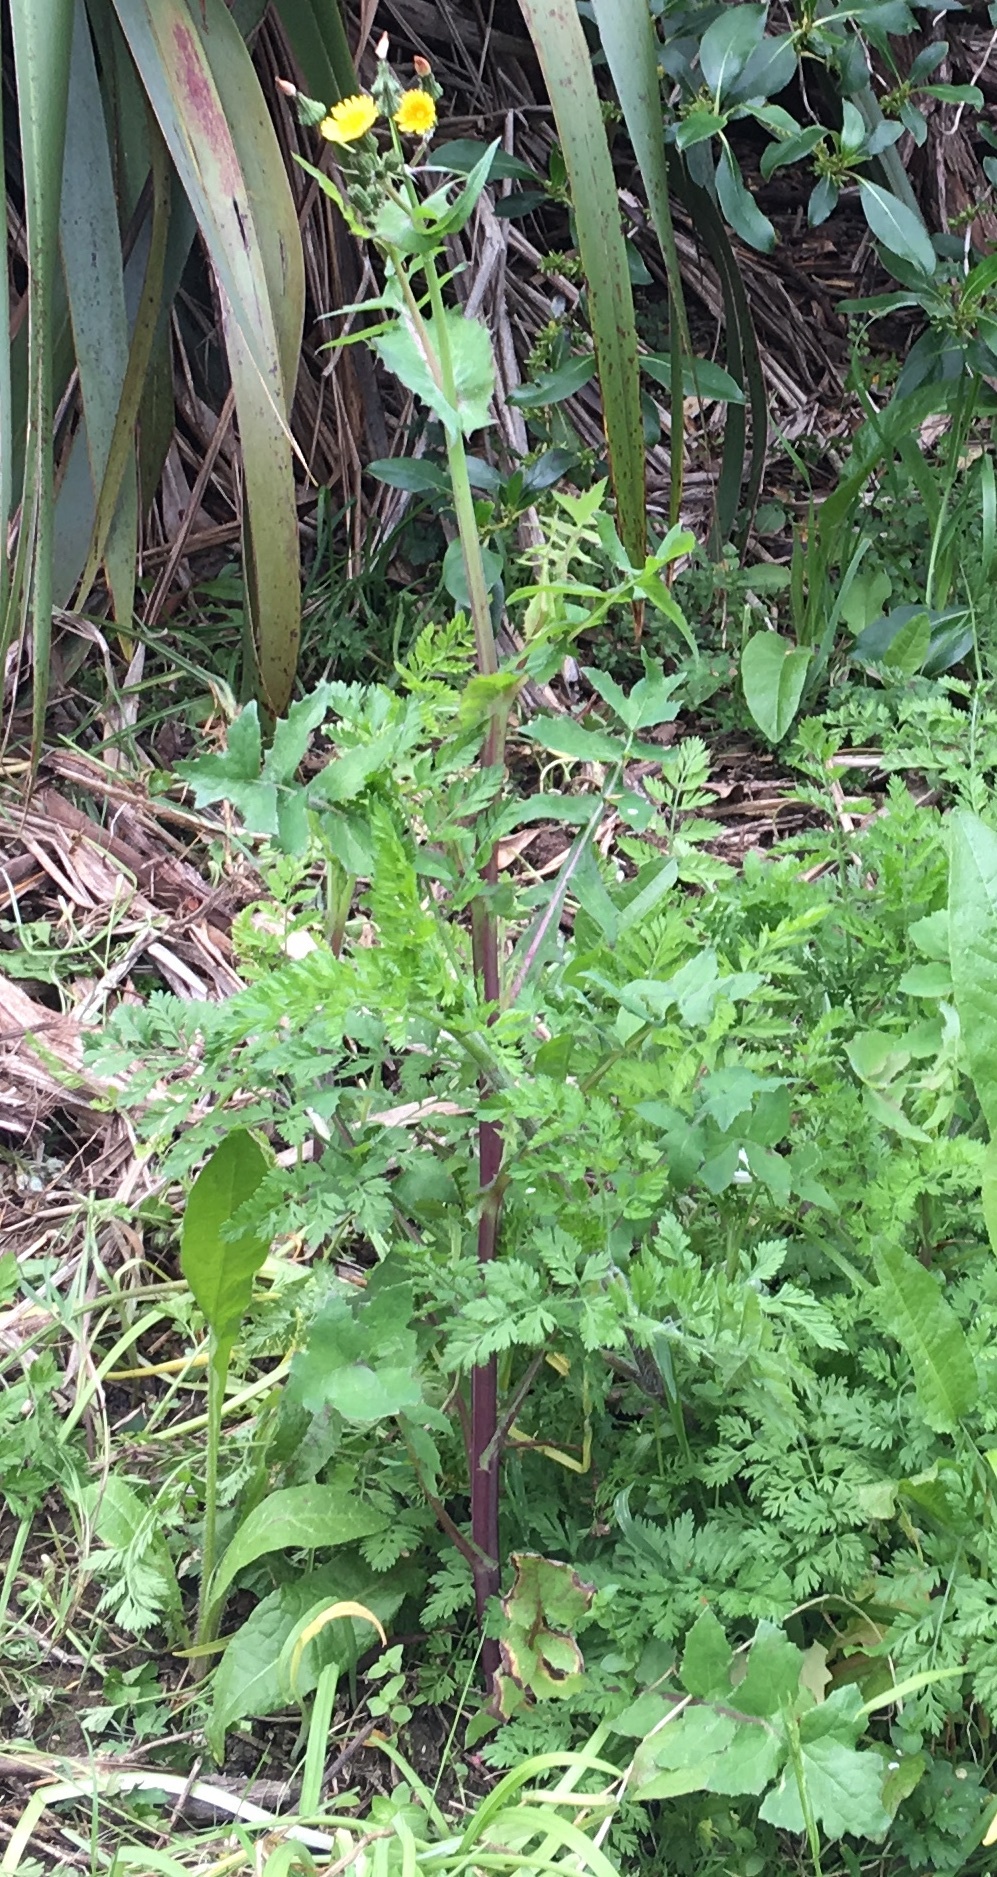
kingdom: Plantae
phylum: Tracheophyta
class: Magnoliopsida
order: Asterales
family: Asteraceae
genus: Sonchus
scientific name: Sonchus oleraceus
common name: Common sowthistle
